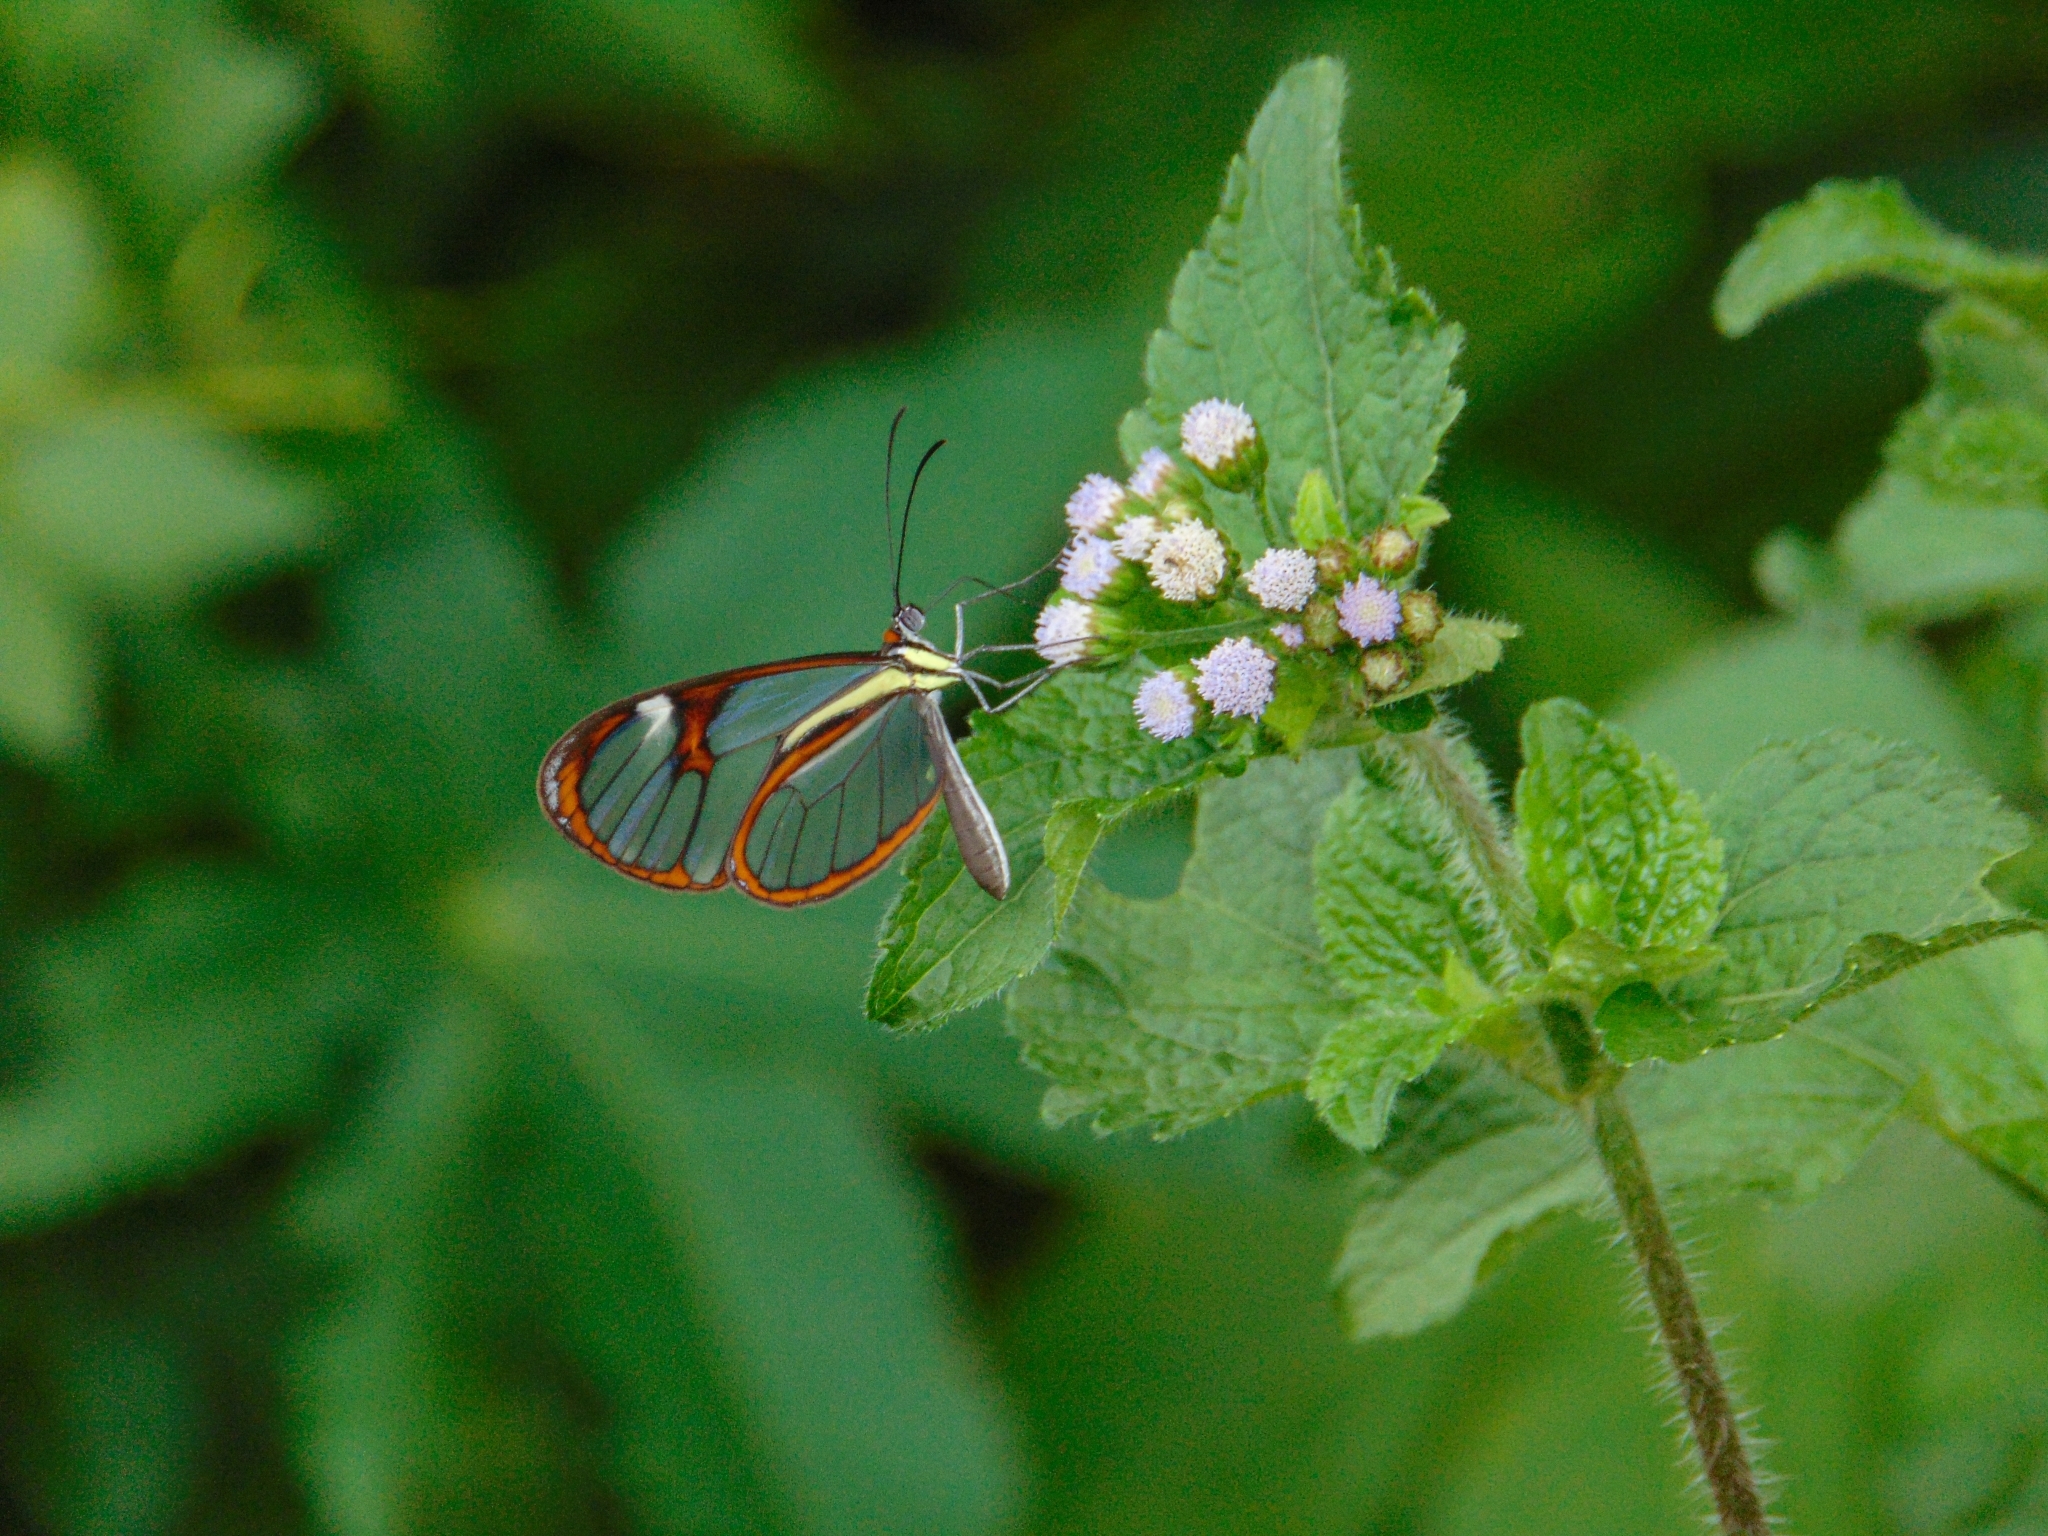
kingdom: Animalia
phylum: Arthropoda
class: Insecta
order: Lepidoptera
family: Nymphalidae
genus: Ithomia
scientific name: Ithomia agnosia
